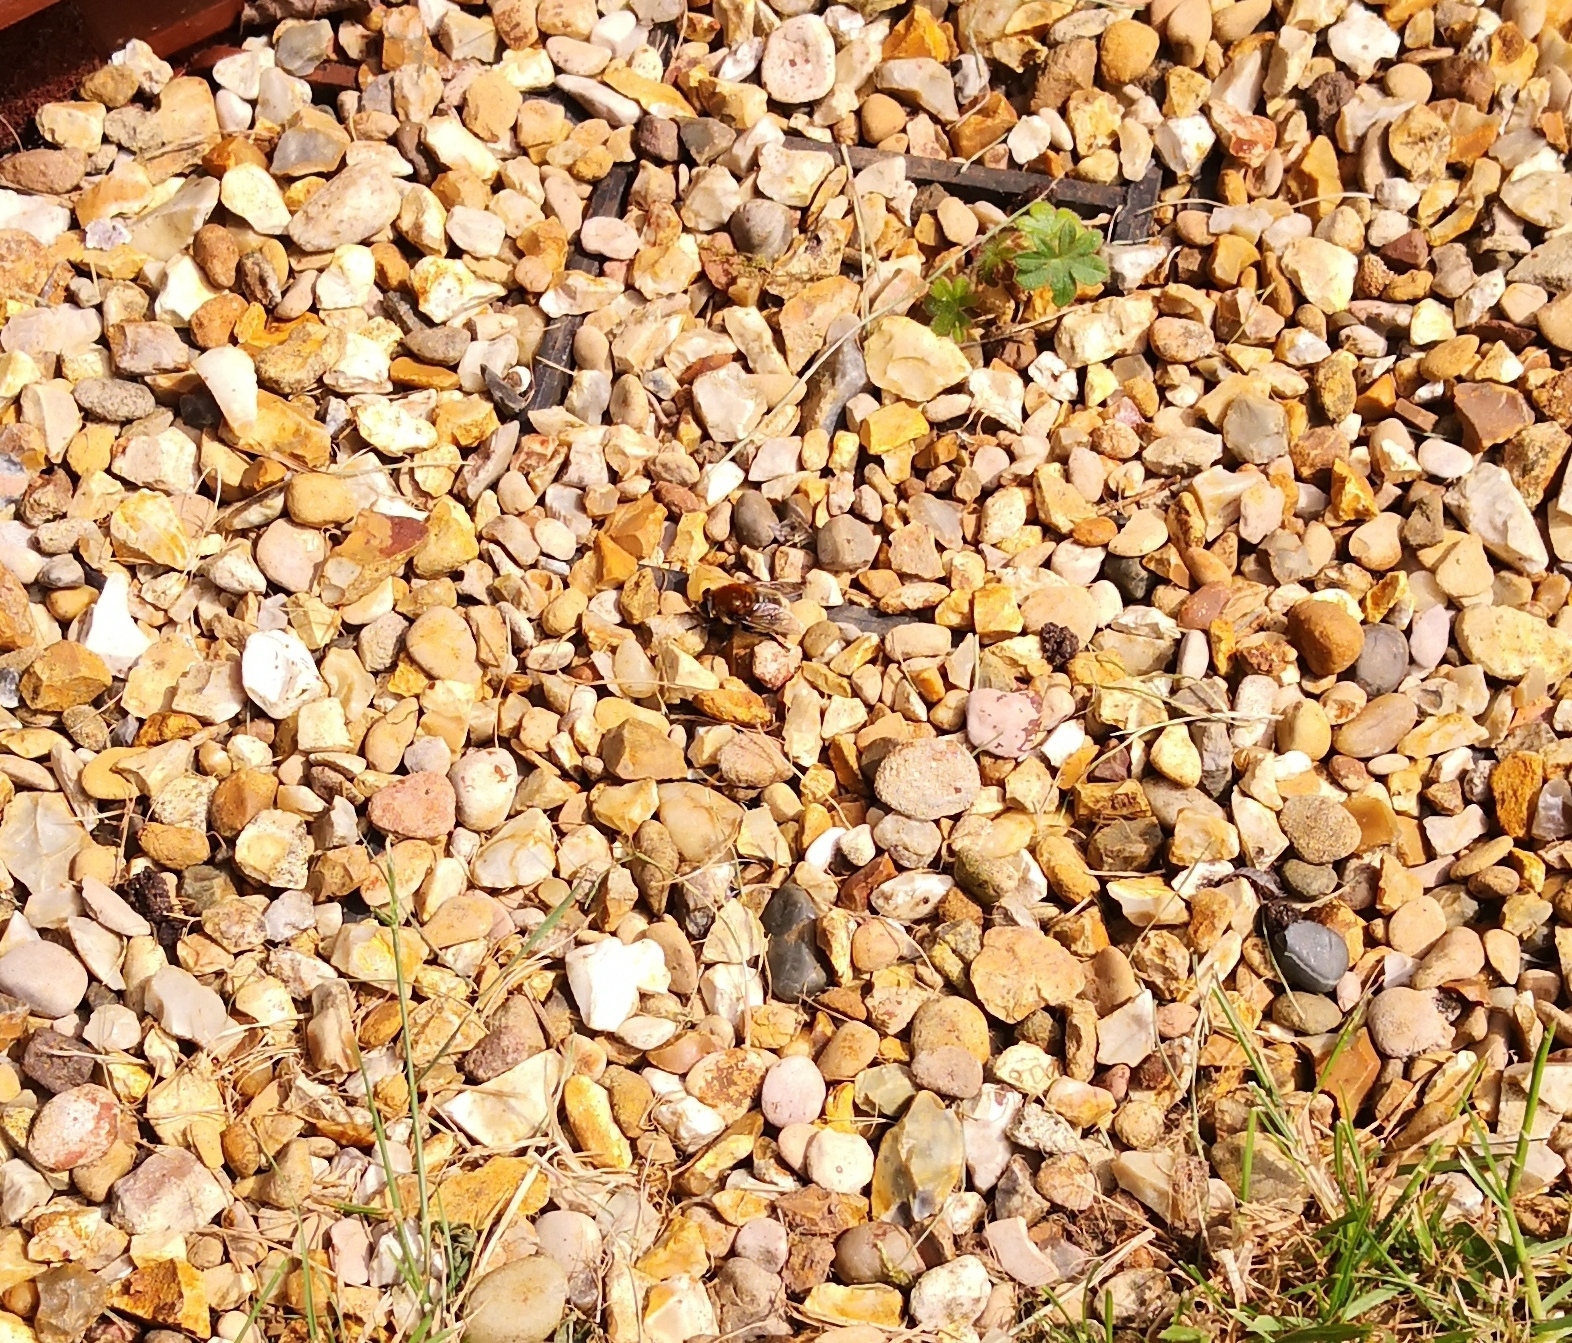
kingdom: Animalia
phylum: Arthropoda
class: Insecta
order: Diptera
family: Syrphidae
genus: Merodon
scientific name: Merodon equestris
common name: Greater bulb-fly
